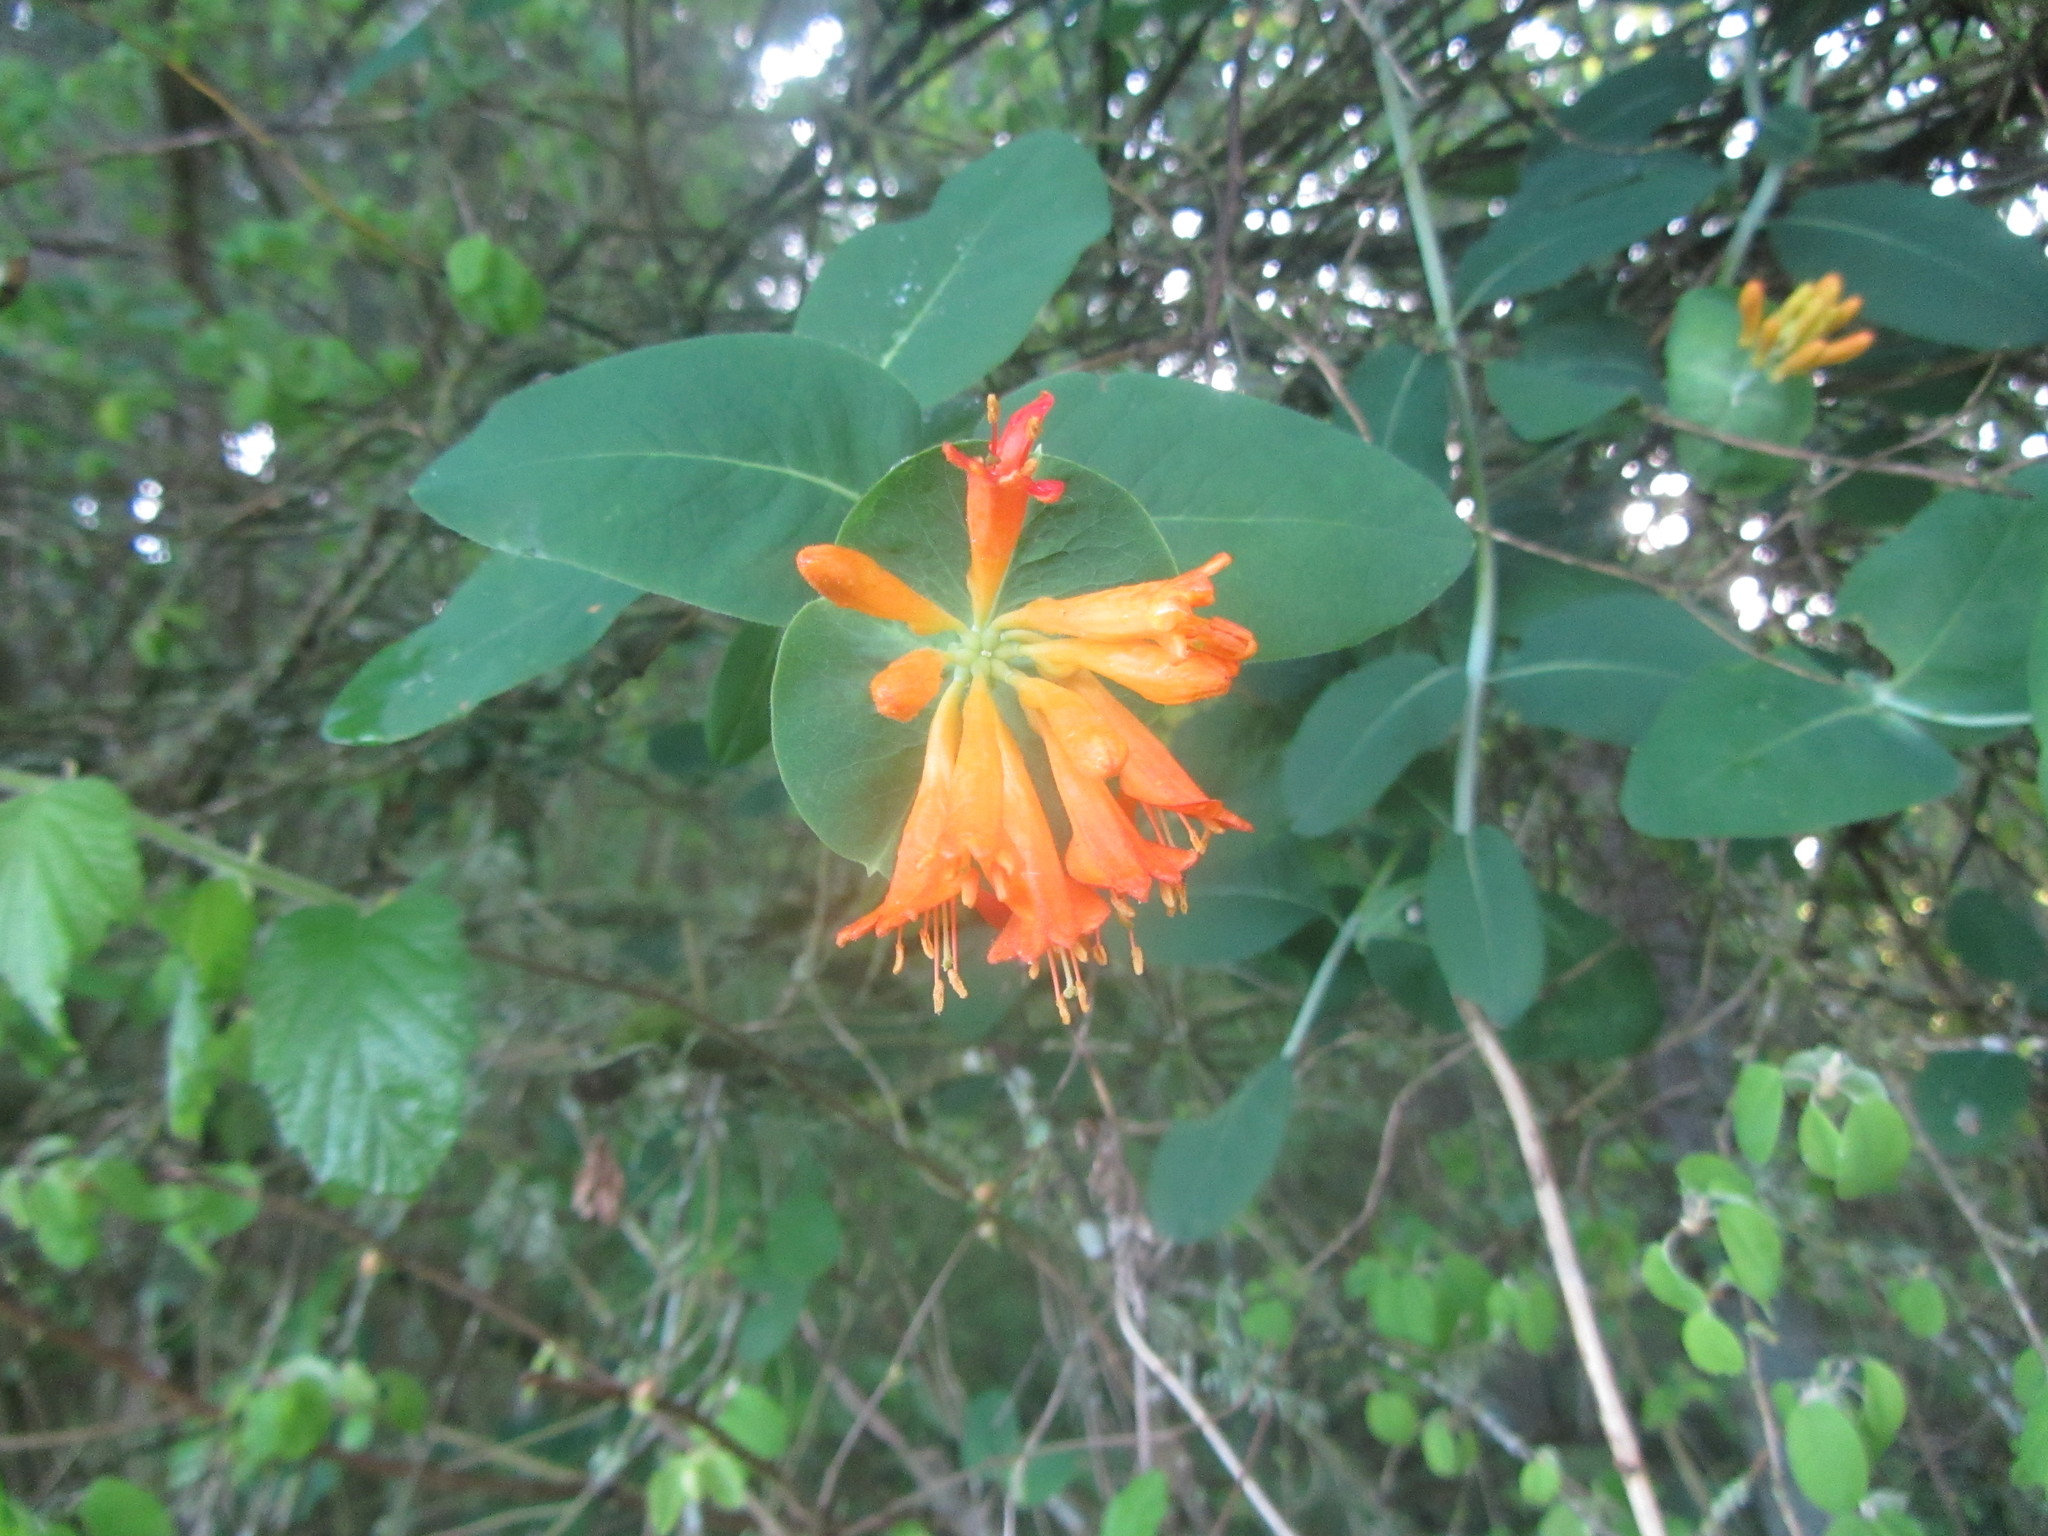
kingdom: Plantae
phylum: Tracheophyta
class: Magnoliopsida
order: Dipsacales
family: Caprifoliaceae
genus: Lonicera
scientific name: Lonicera ciliosa
